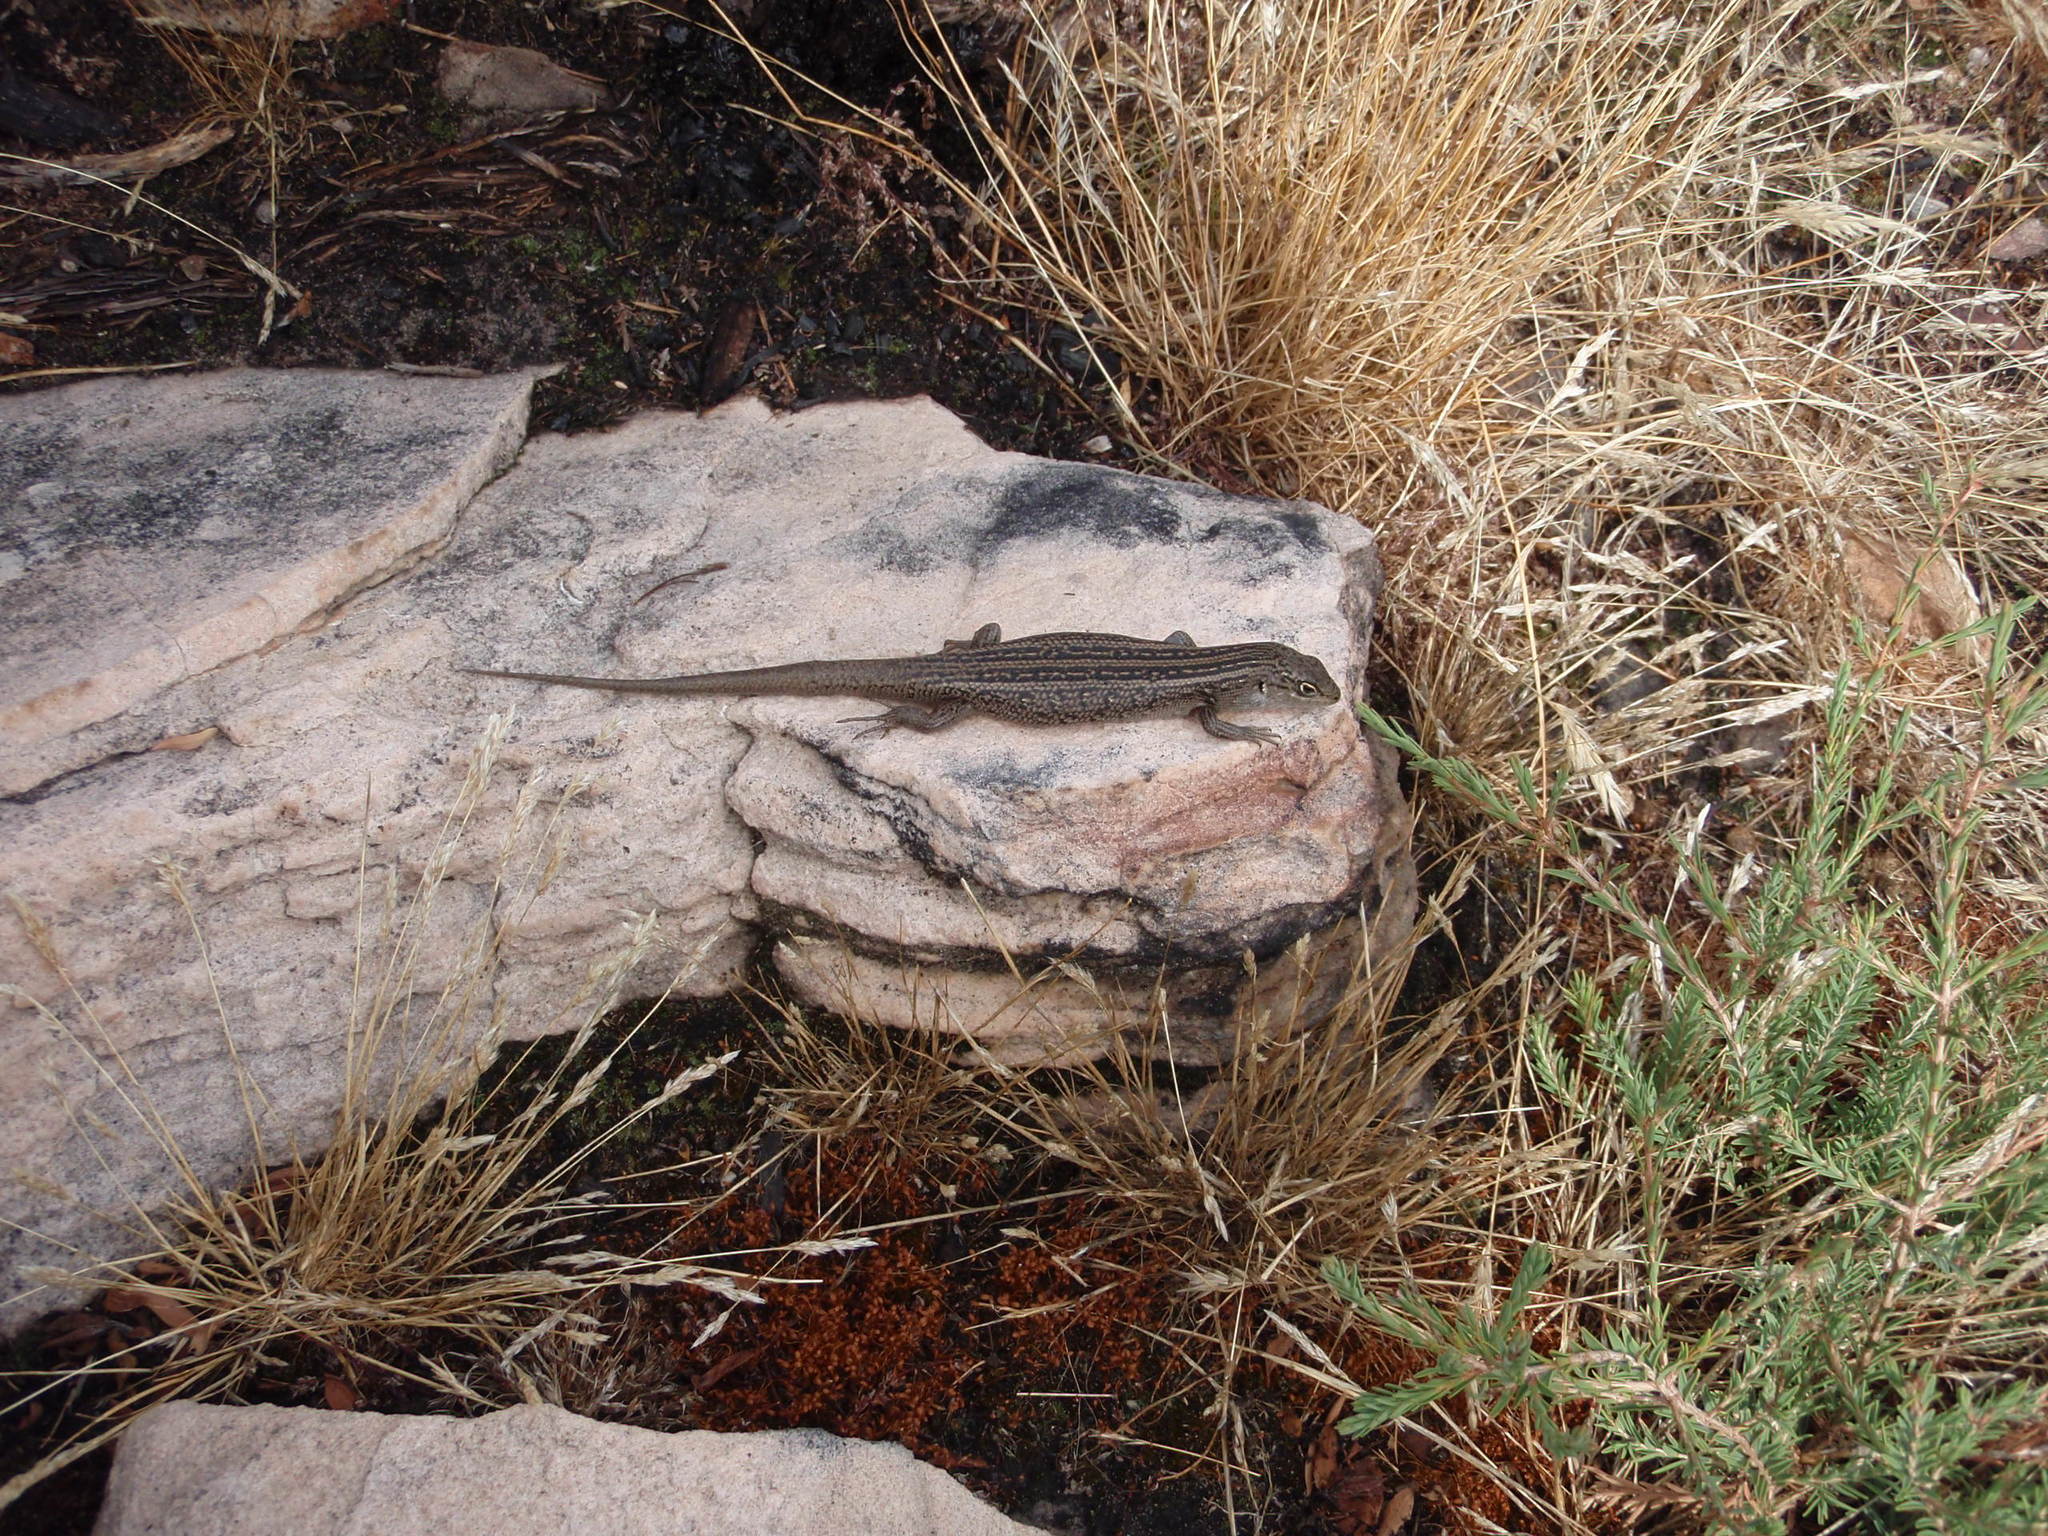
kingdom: Animalia
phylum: Chordata
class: Squamata
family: Scincidae
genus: Liopholis
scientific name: Liopholis whitii
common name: White's rock-skink
